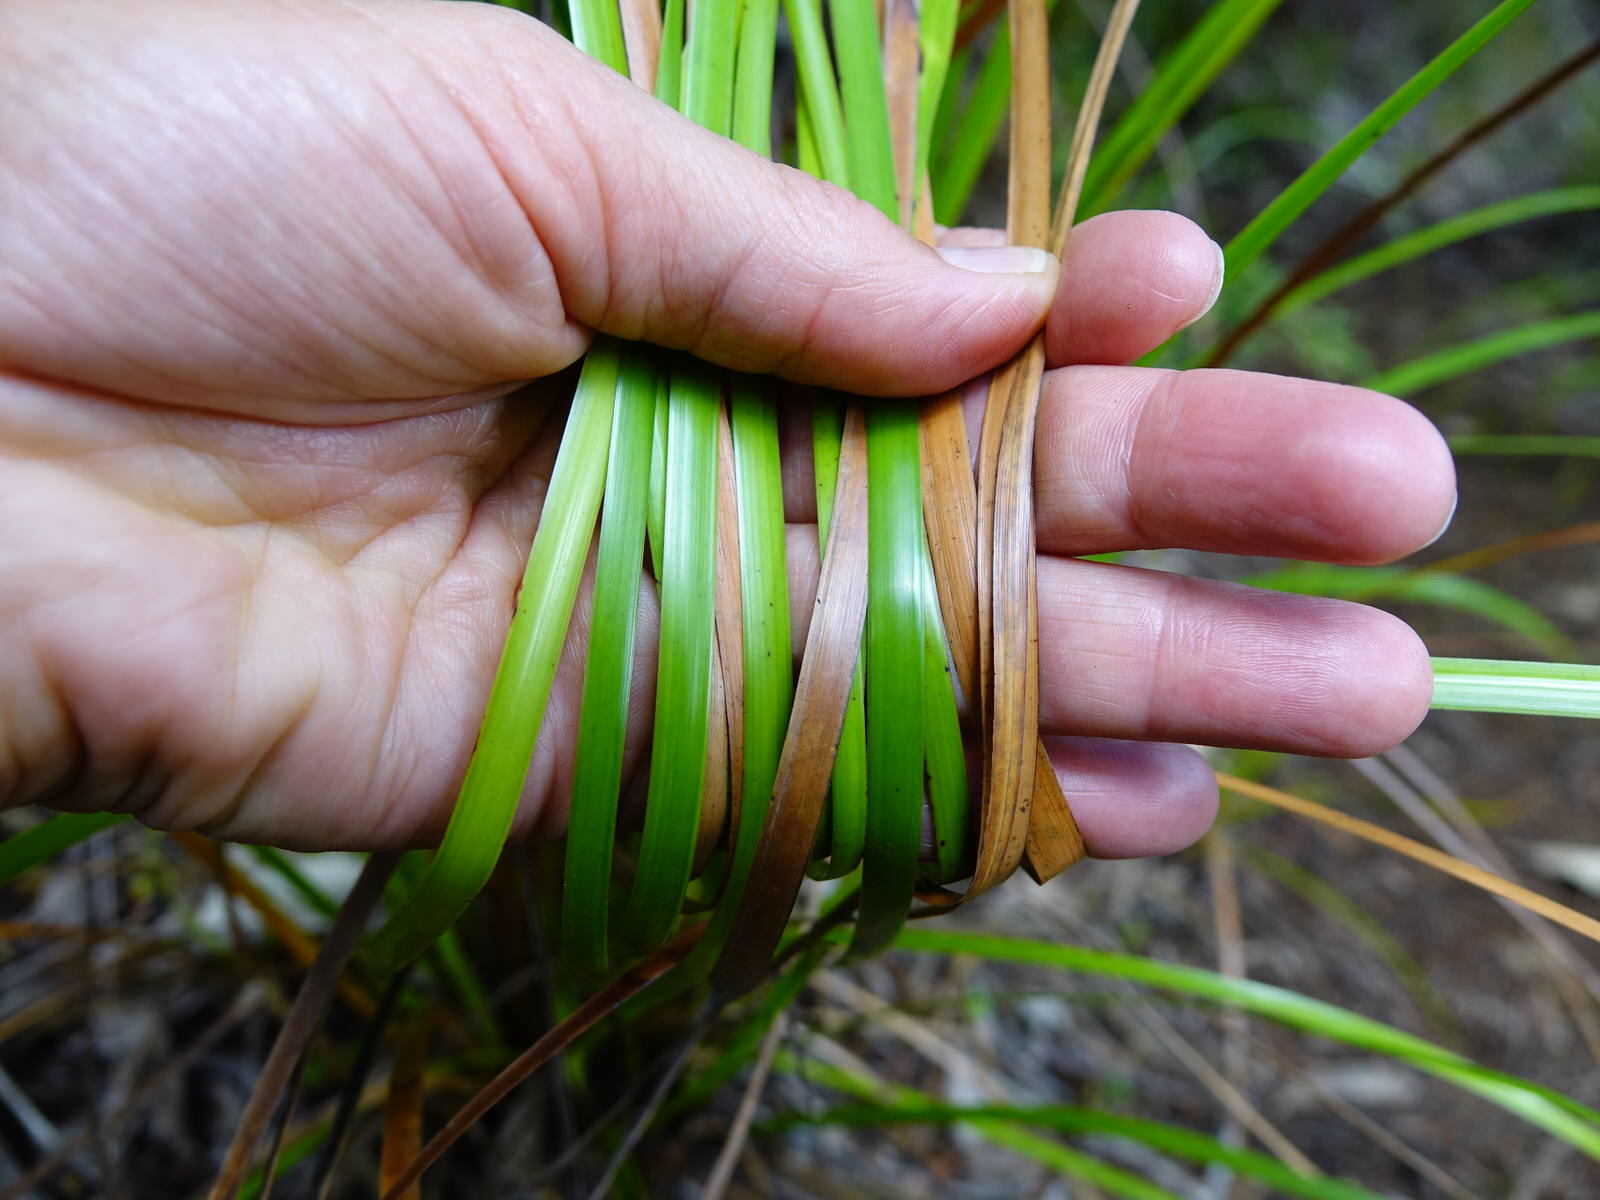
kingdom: Plantae
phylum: Tracheophyta
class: Liliopsida
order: Poales
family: Cyperaceae
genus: Lepidosperma
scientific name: Lepidosperma laterale
